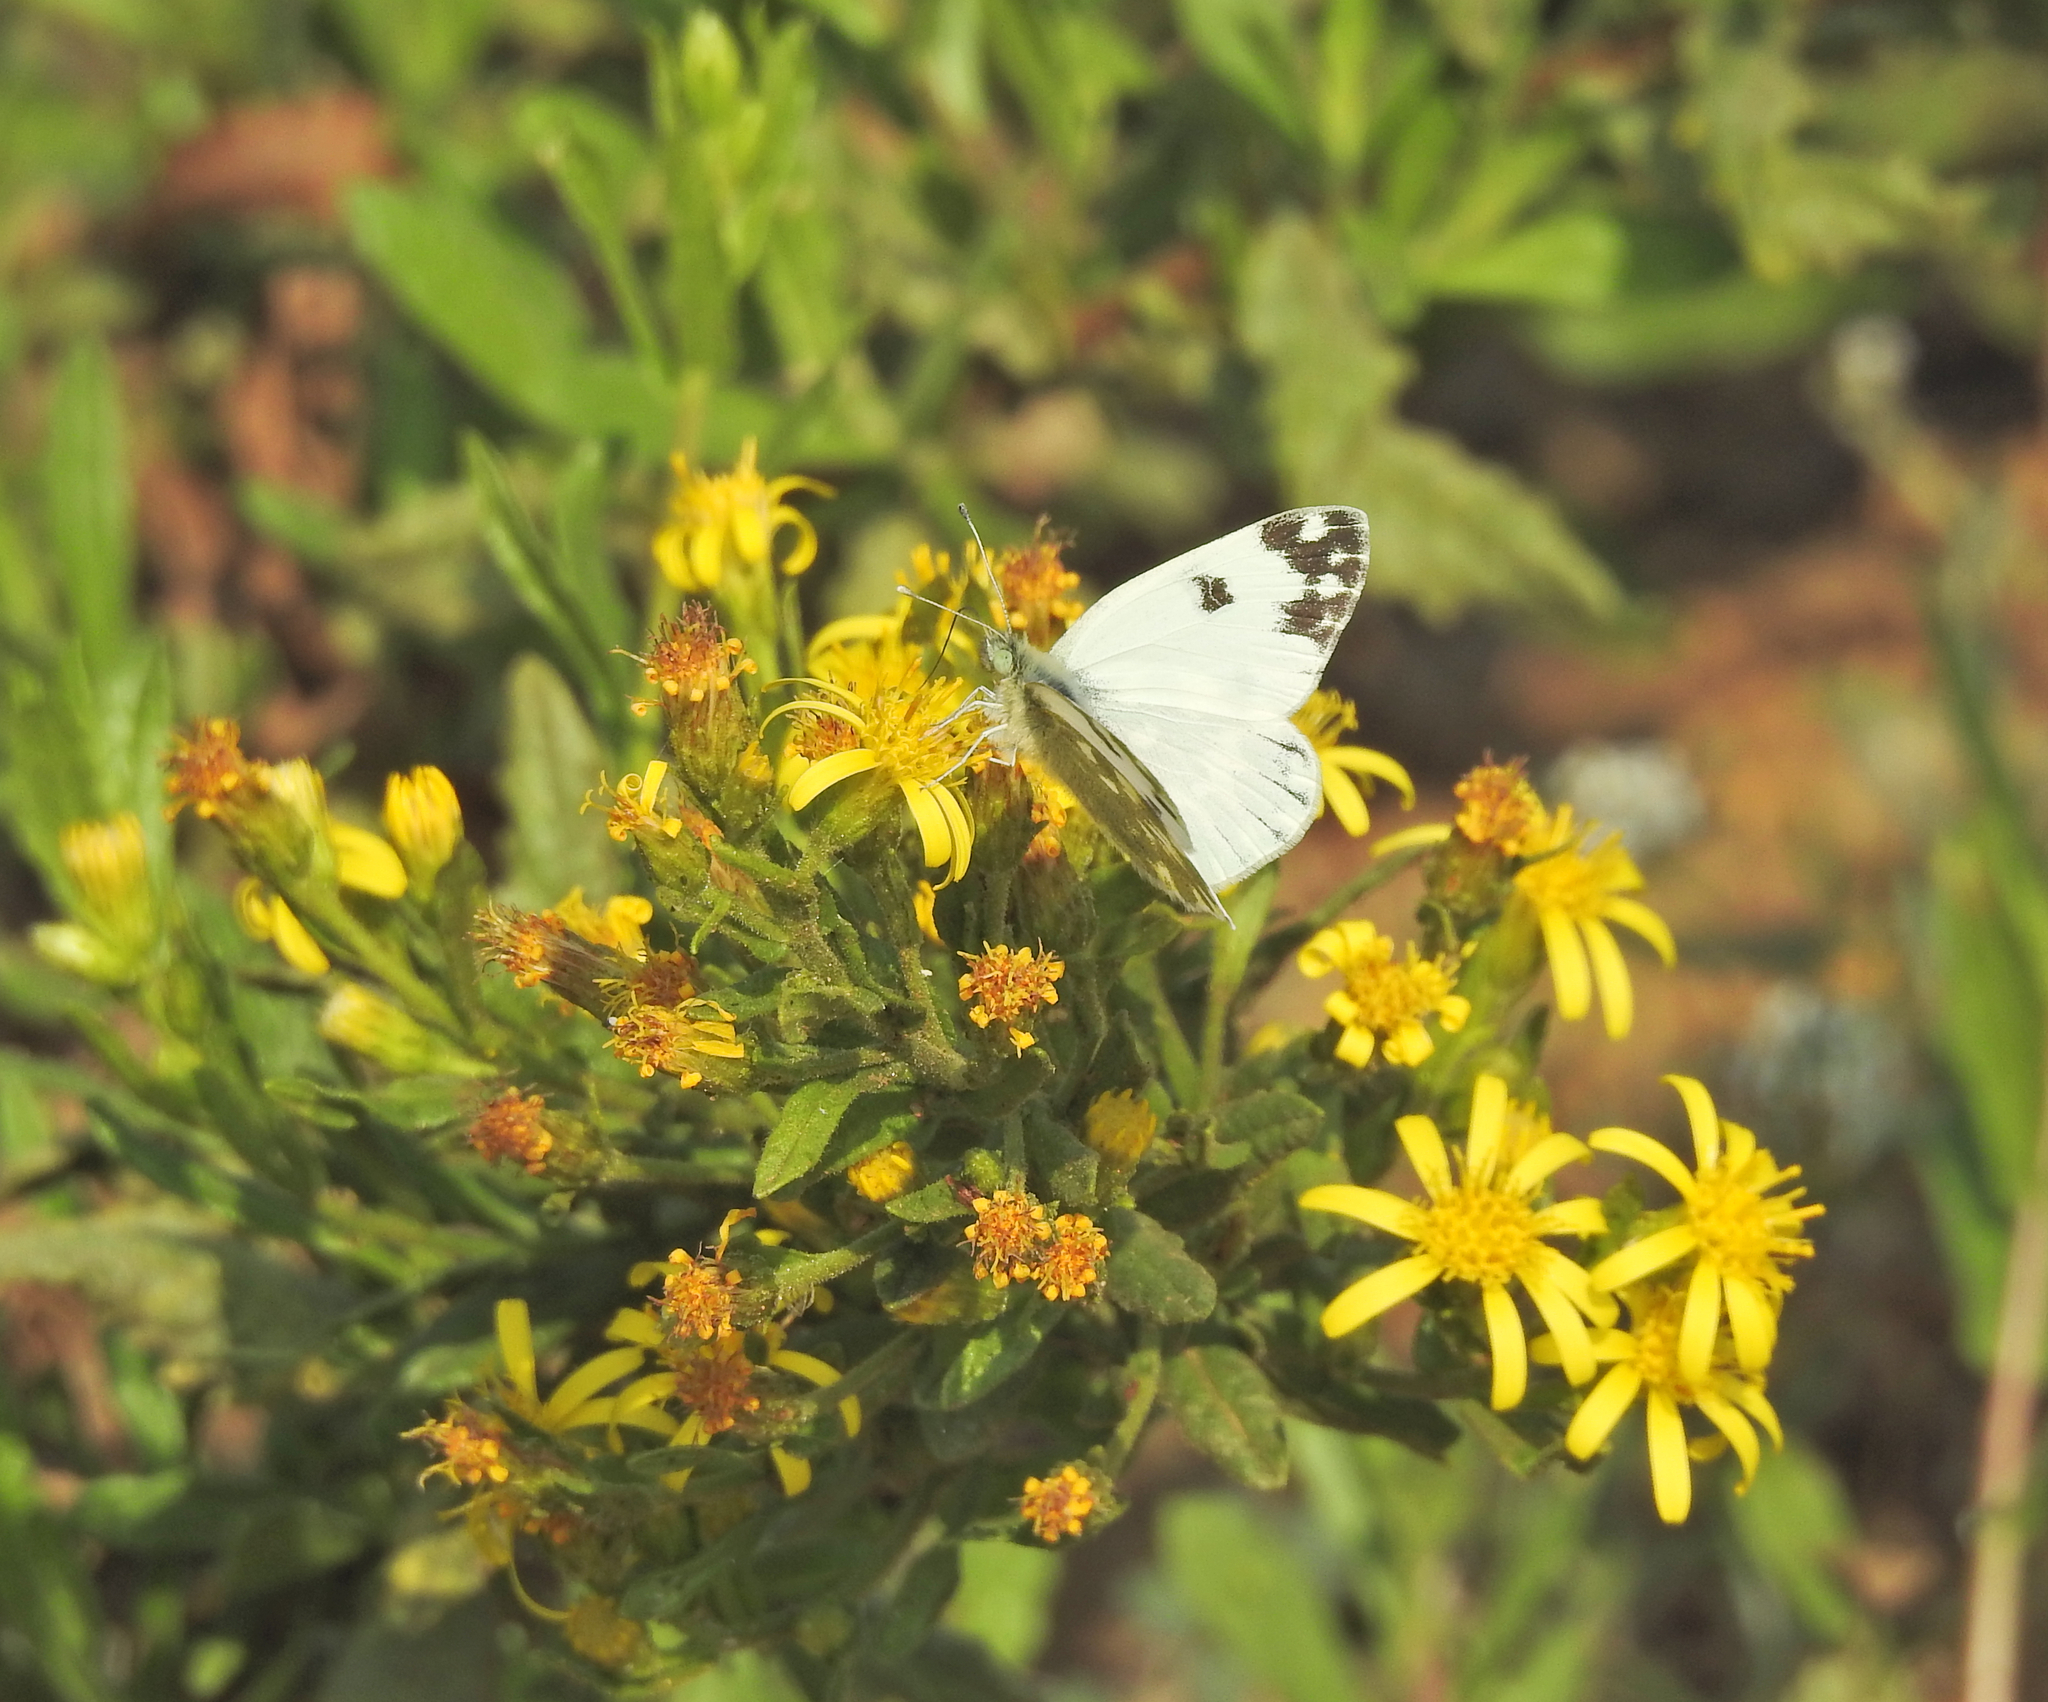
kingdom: Animalia
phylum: Arthropoda
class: Insecta
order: Lepidoptera
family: Pieridae
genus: Pontia
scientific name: Pontia daplidice
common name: Bath white
